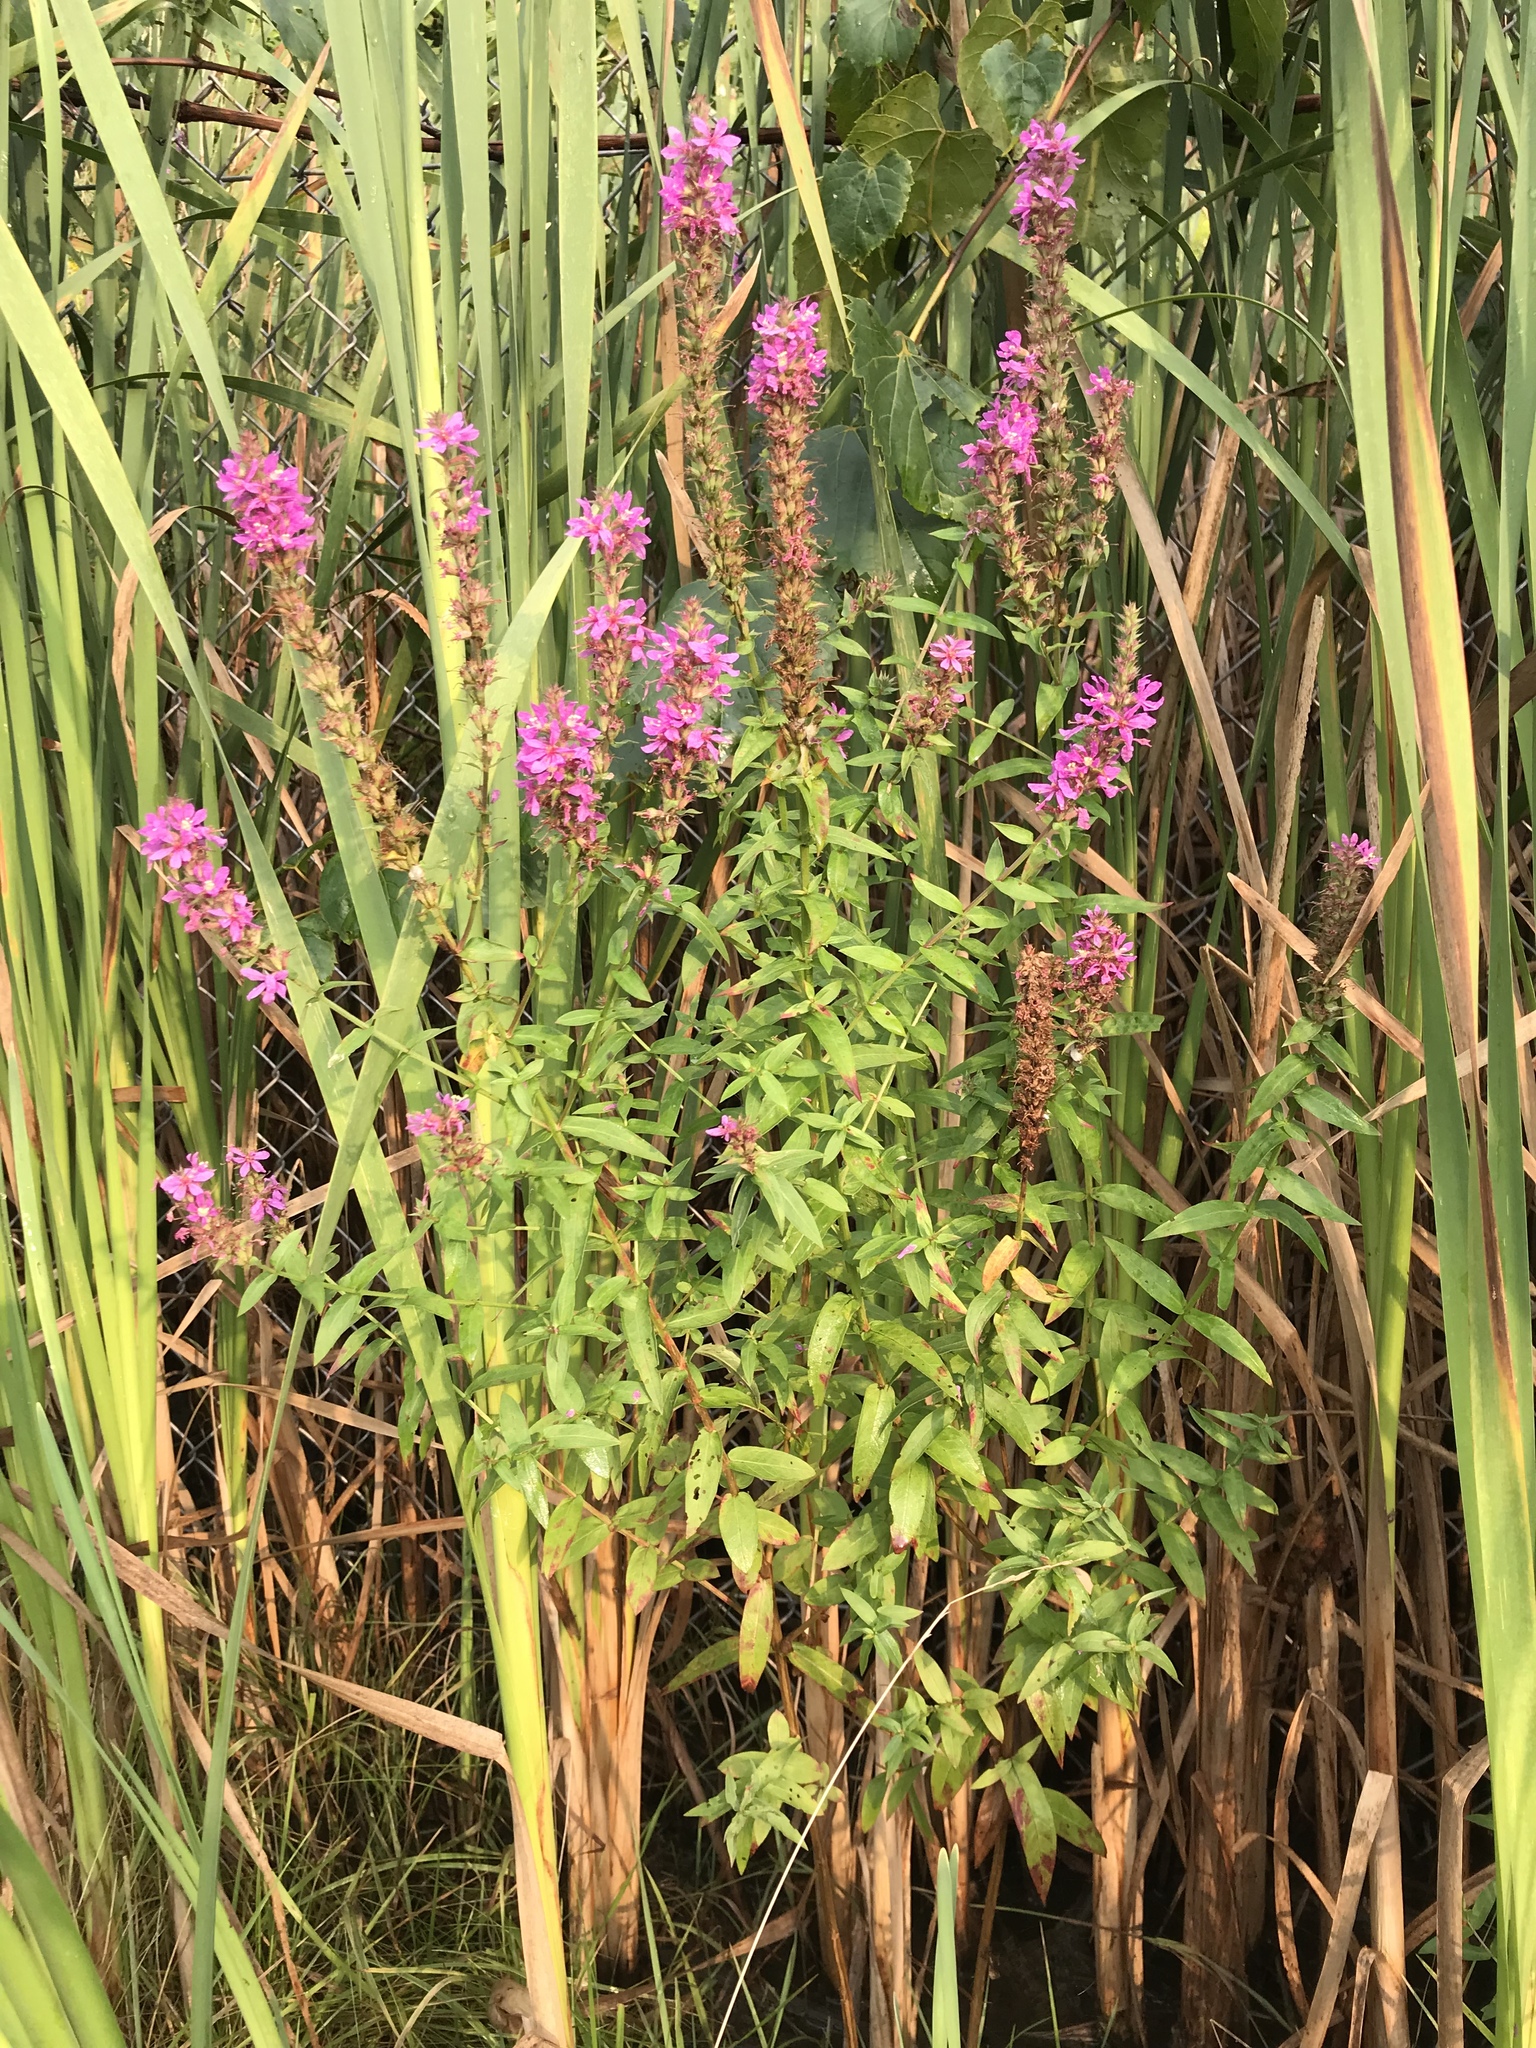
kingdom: Plantae
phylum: Tracheophyta
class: Magnoliopsida
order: Myrtales
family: Lythraceae
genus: Lythrum
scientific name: Lythrum salicaria
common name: Purple loosestrife
